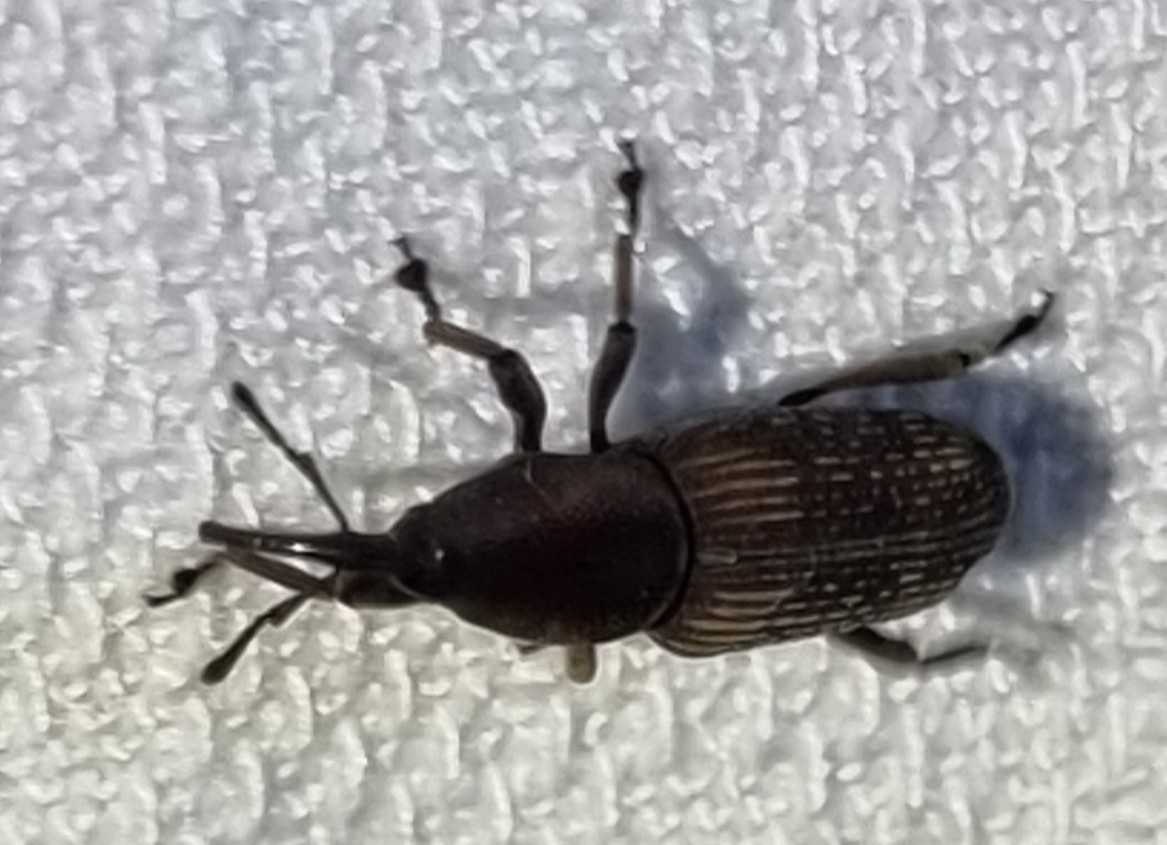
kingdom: Animalia
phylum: Arthropoda
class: Insecta
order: Coleoptera
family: Dryophthoridae
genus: Rhabdoscelus
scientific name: Rhabdoscelus obscurus
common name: Cane weevil borer
